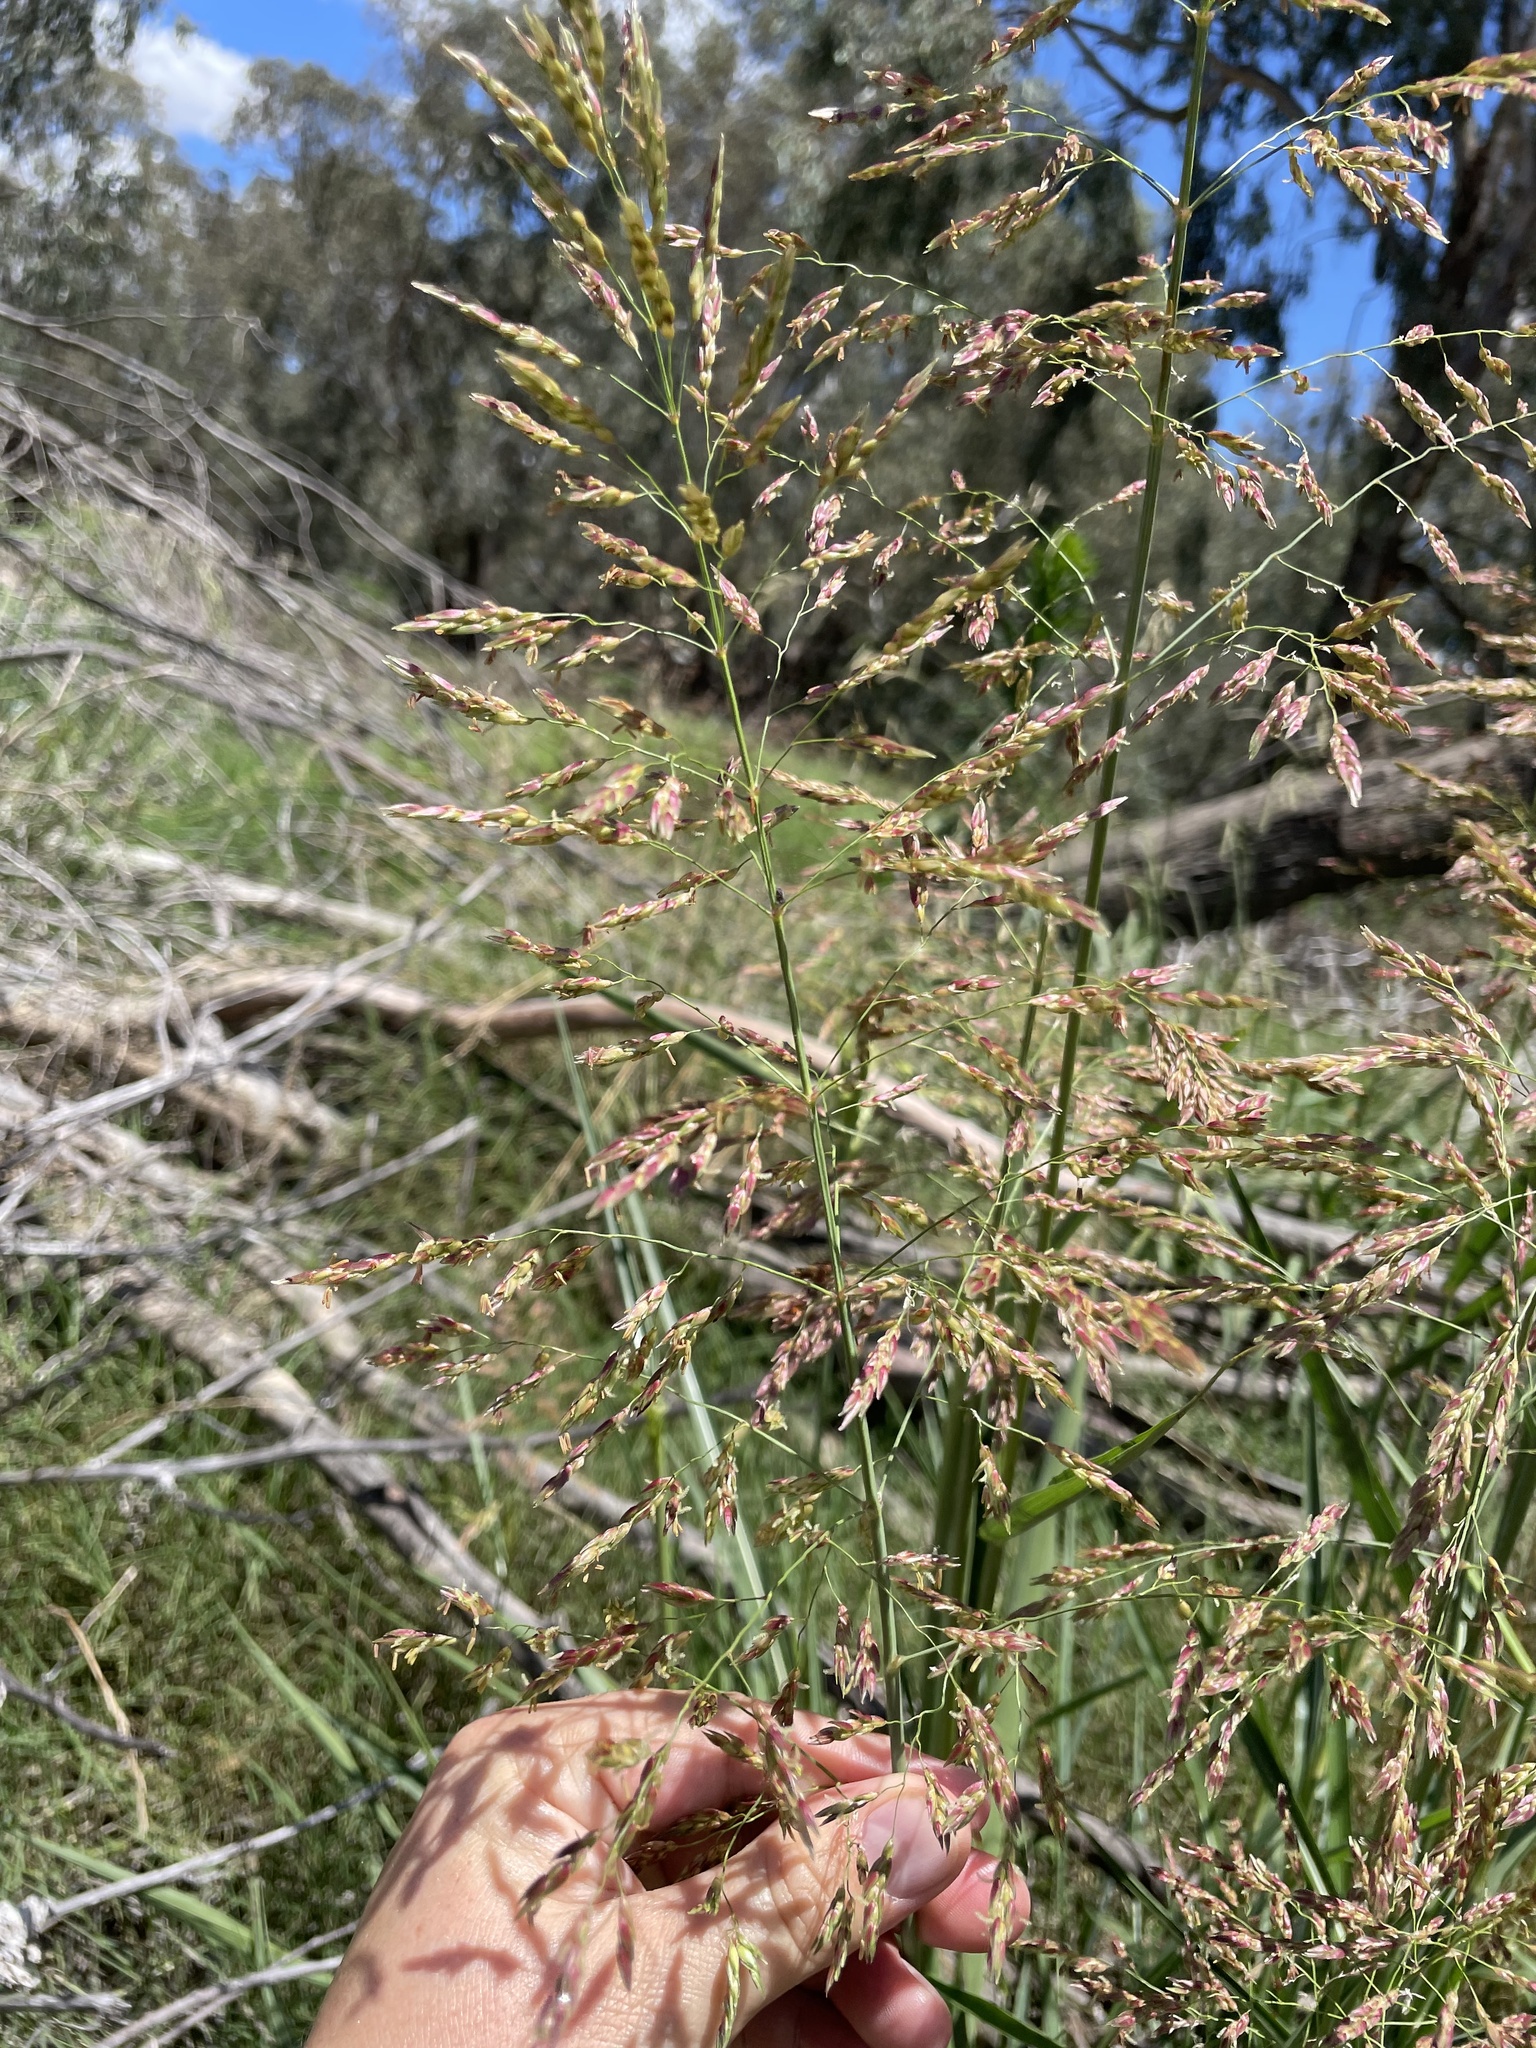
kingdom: Plantae
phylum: Tracheophyta
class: Liliopsida
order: Poales
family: Poaceae
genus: Sorghum
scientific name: Sorghum halepense
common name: Johnson-grass
